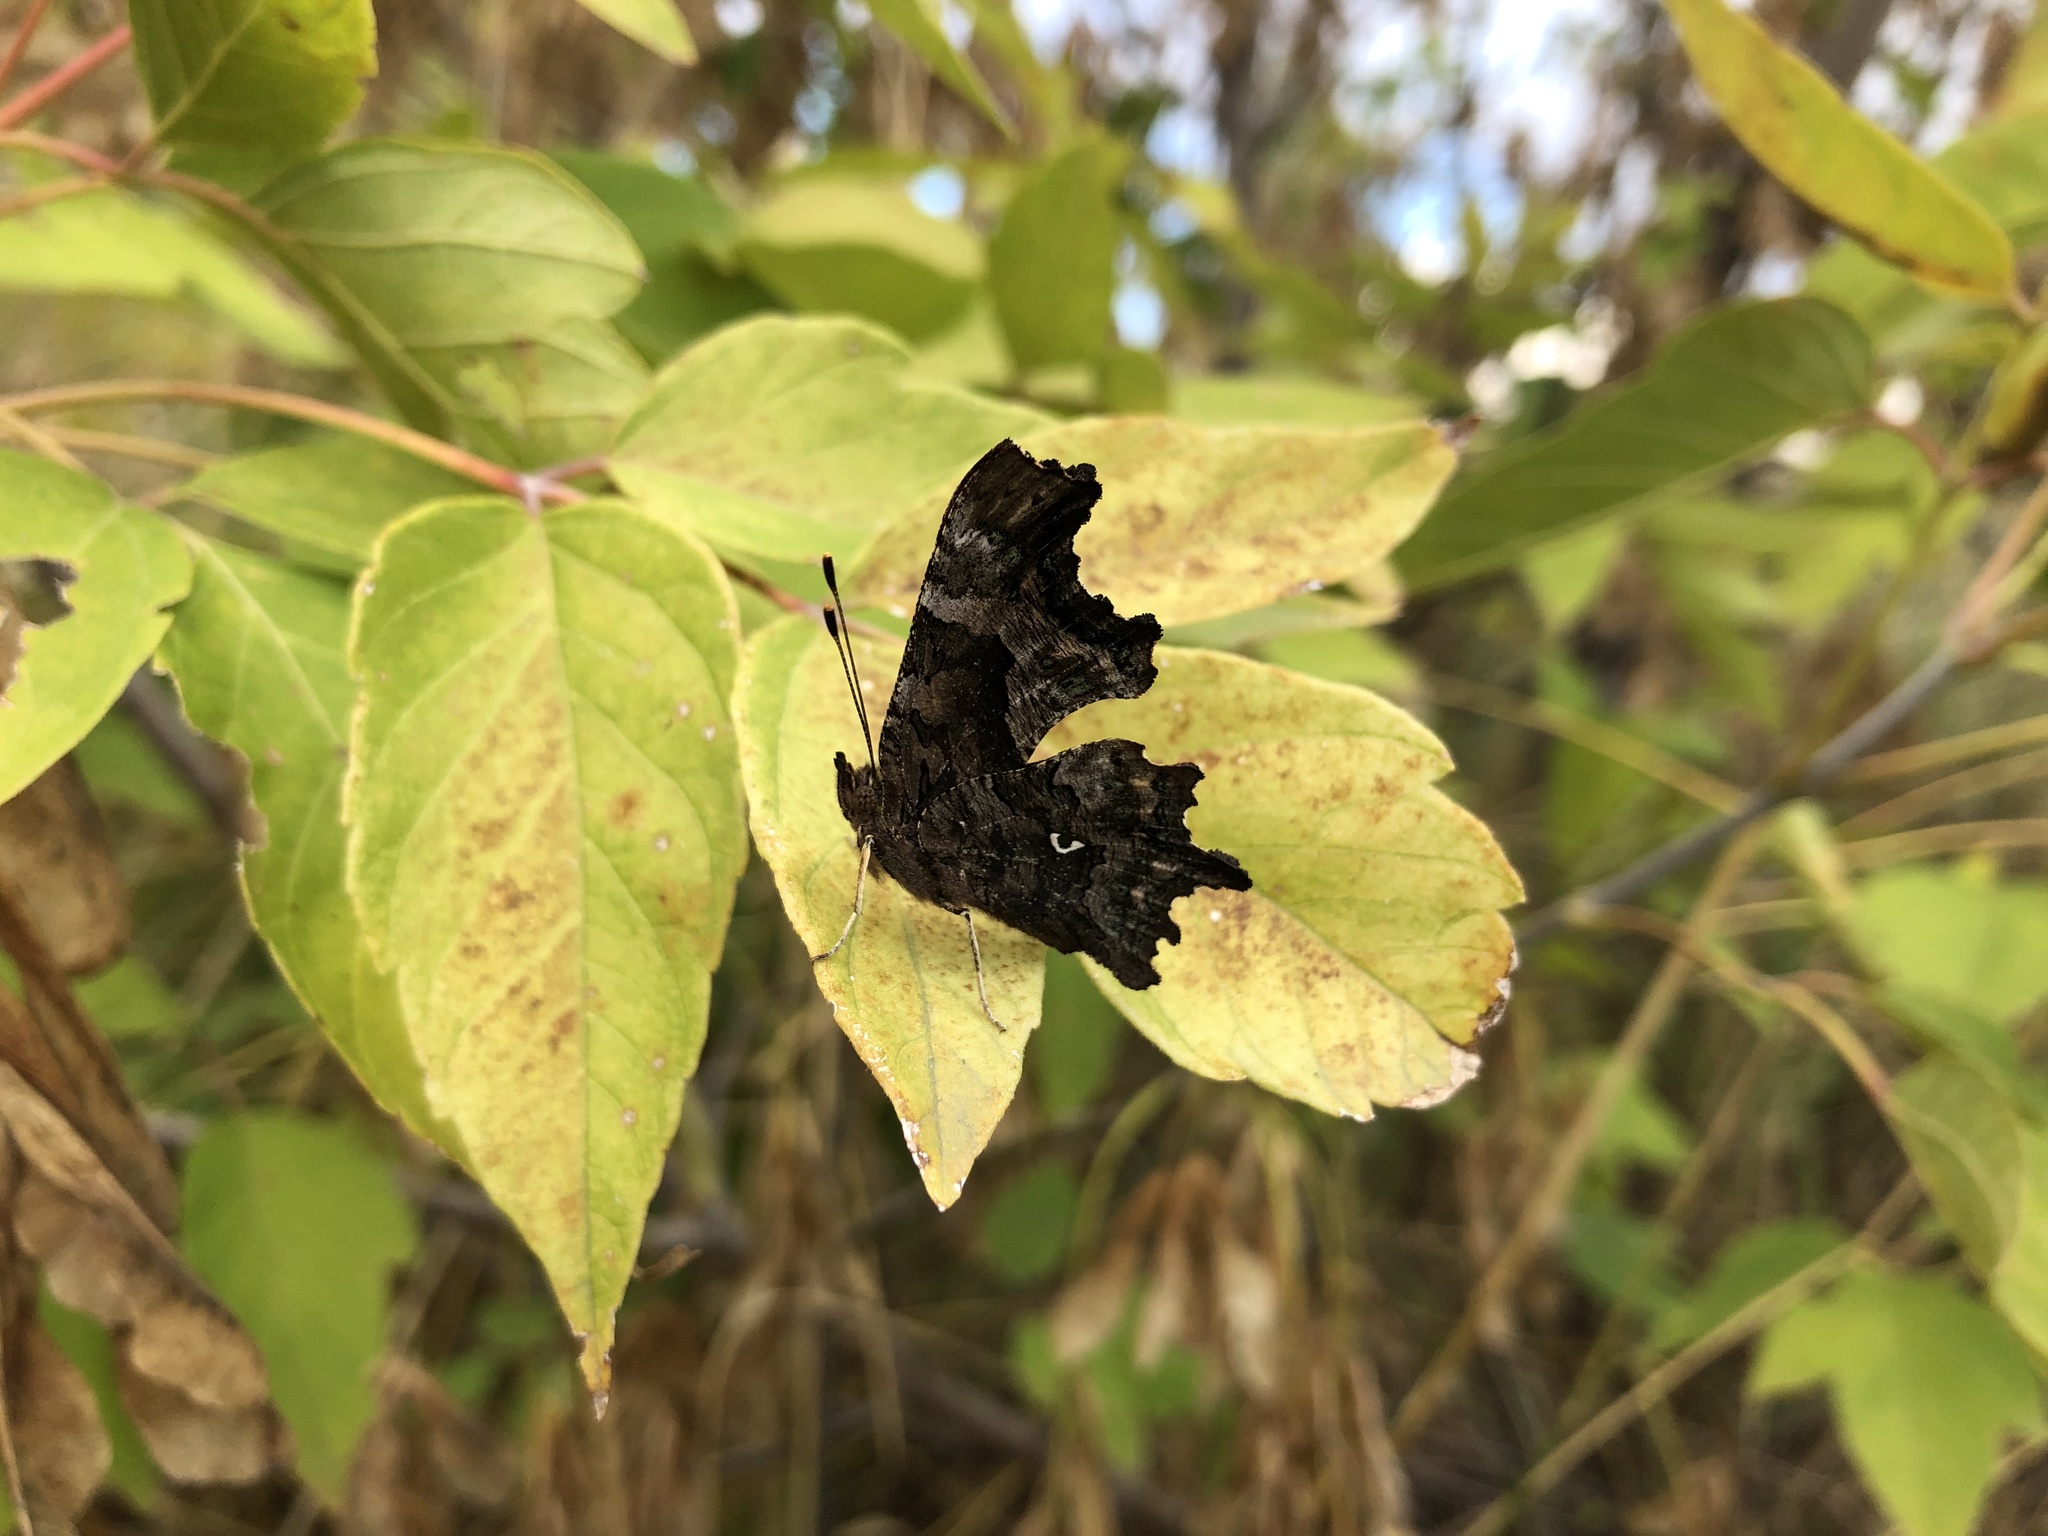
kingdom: Animalia
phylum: Arthropoda
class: Insecta
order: Lepidoptera
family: Nymphalidae
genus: Polygonia
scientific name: Polygonia c-album
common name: Comma
